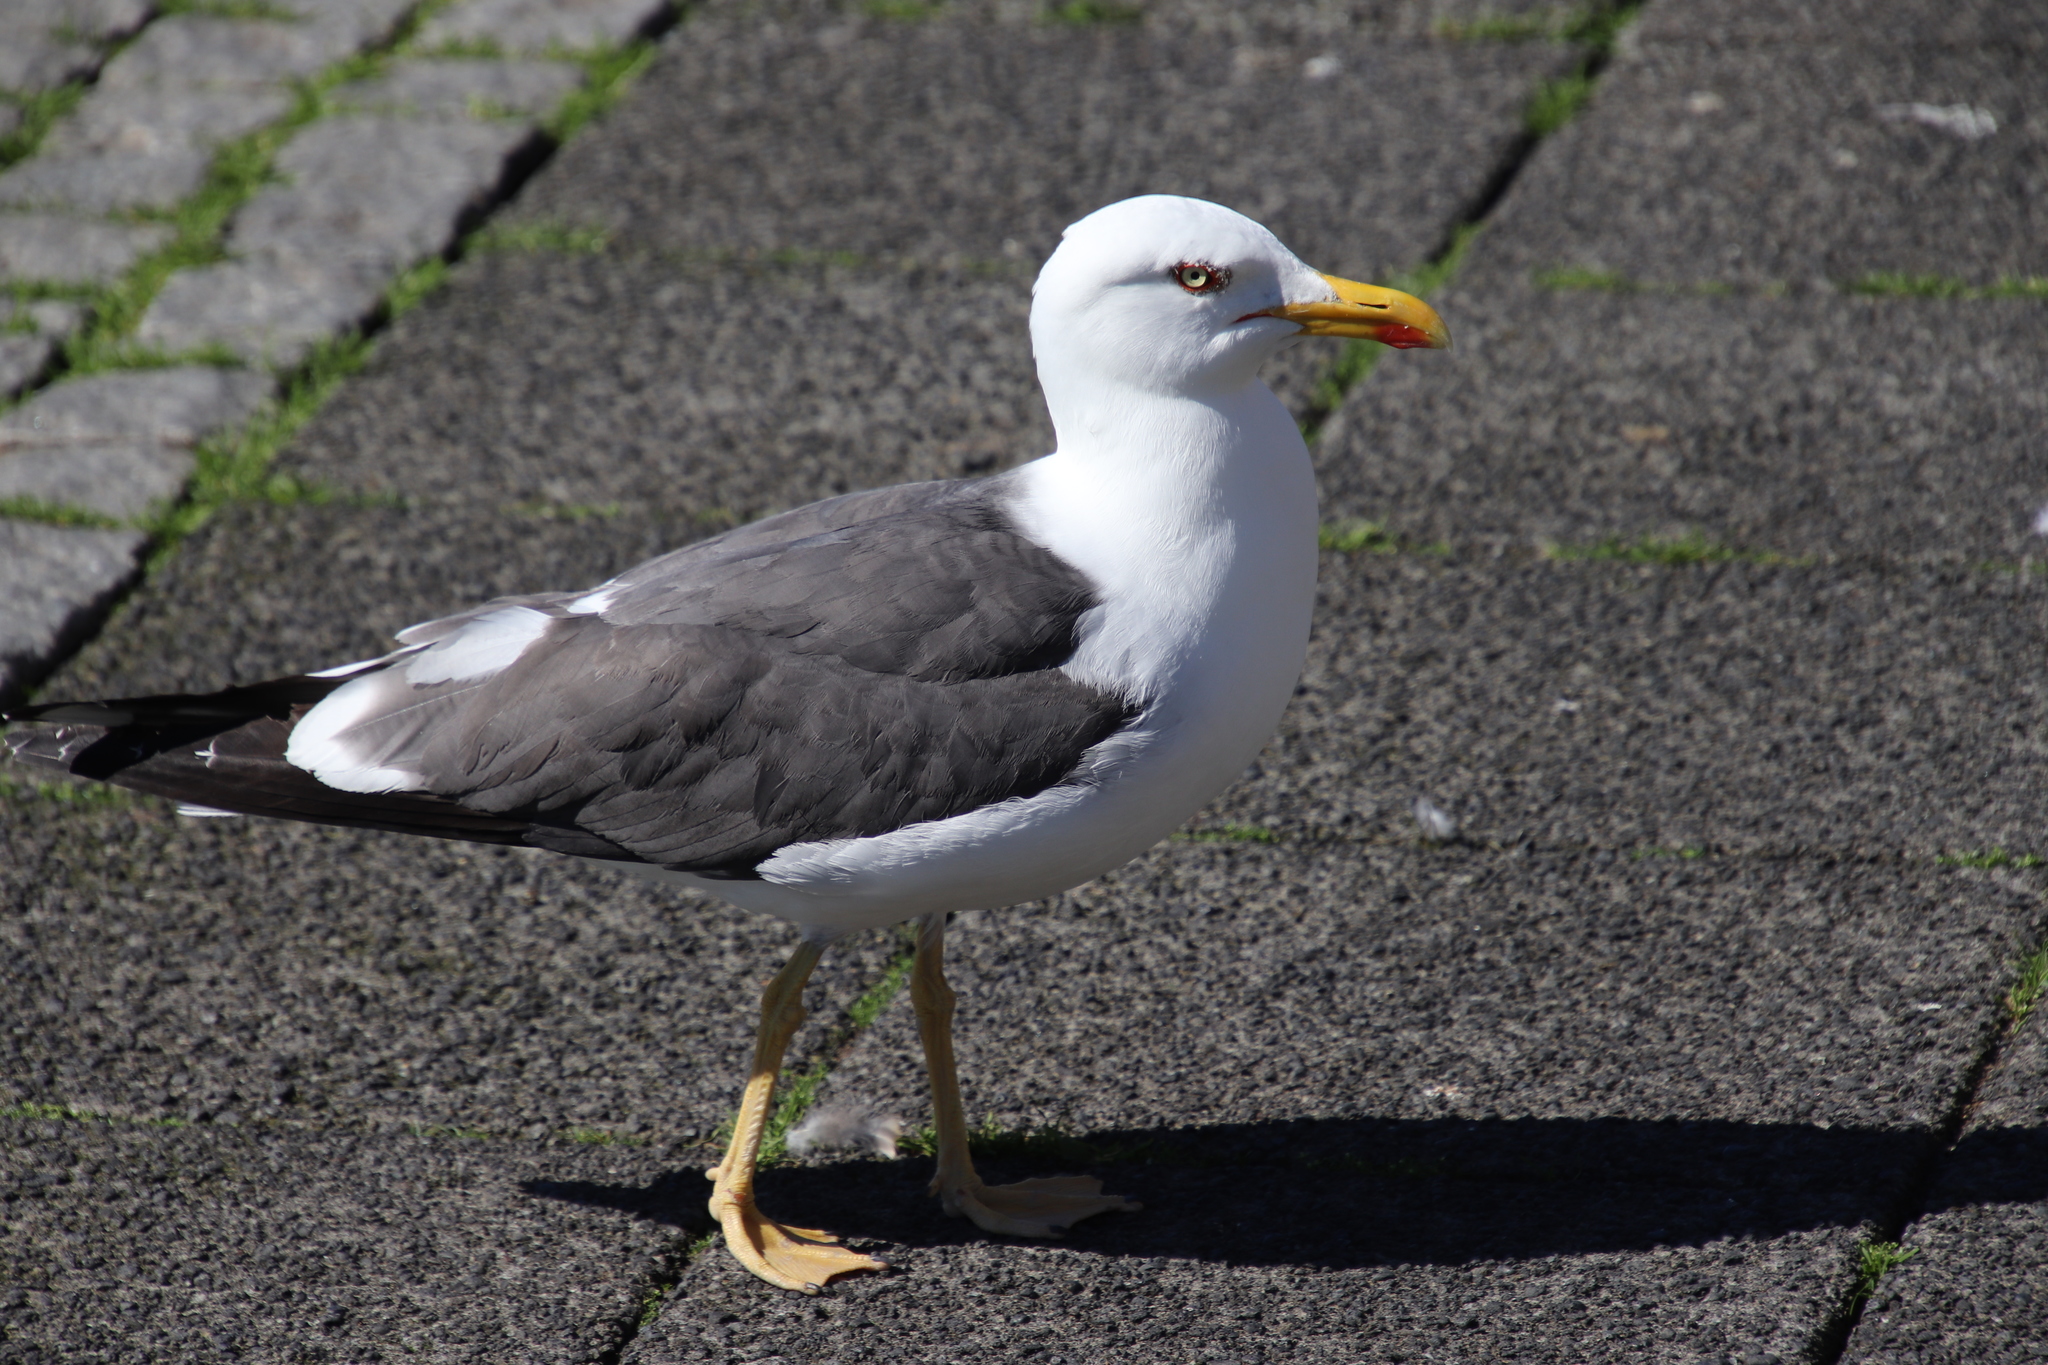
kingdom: Animalia
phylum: Chordata
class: Aves
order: Charadriiformes
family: Laridae
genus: Larus
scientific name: Larus fuscus
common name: Lesser black-backed gull
